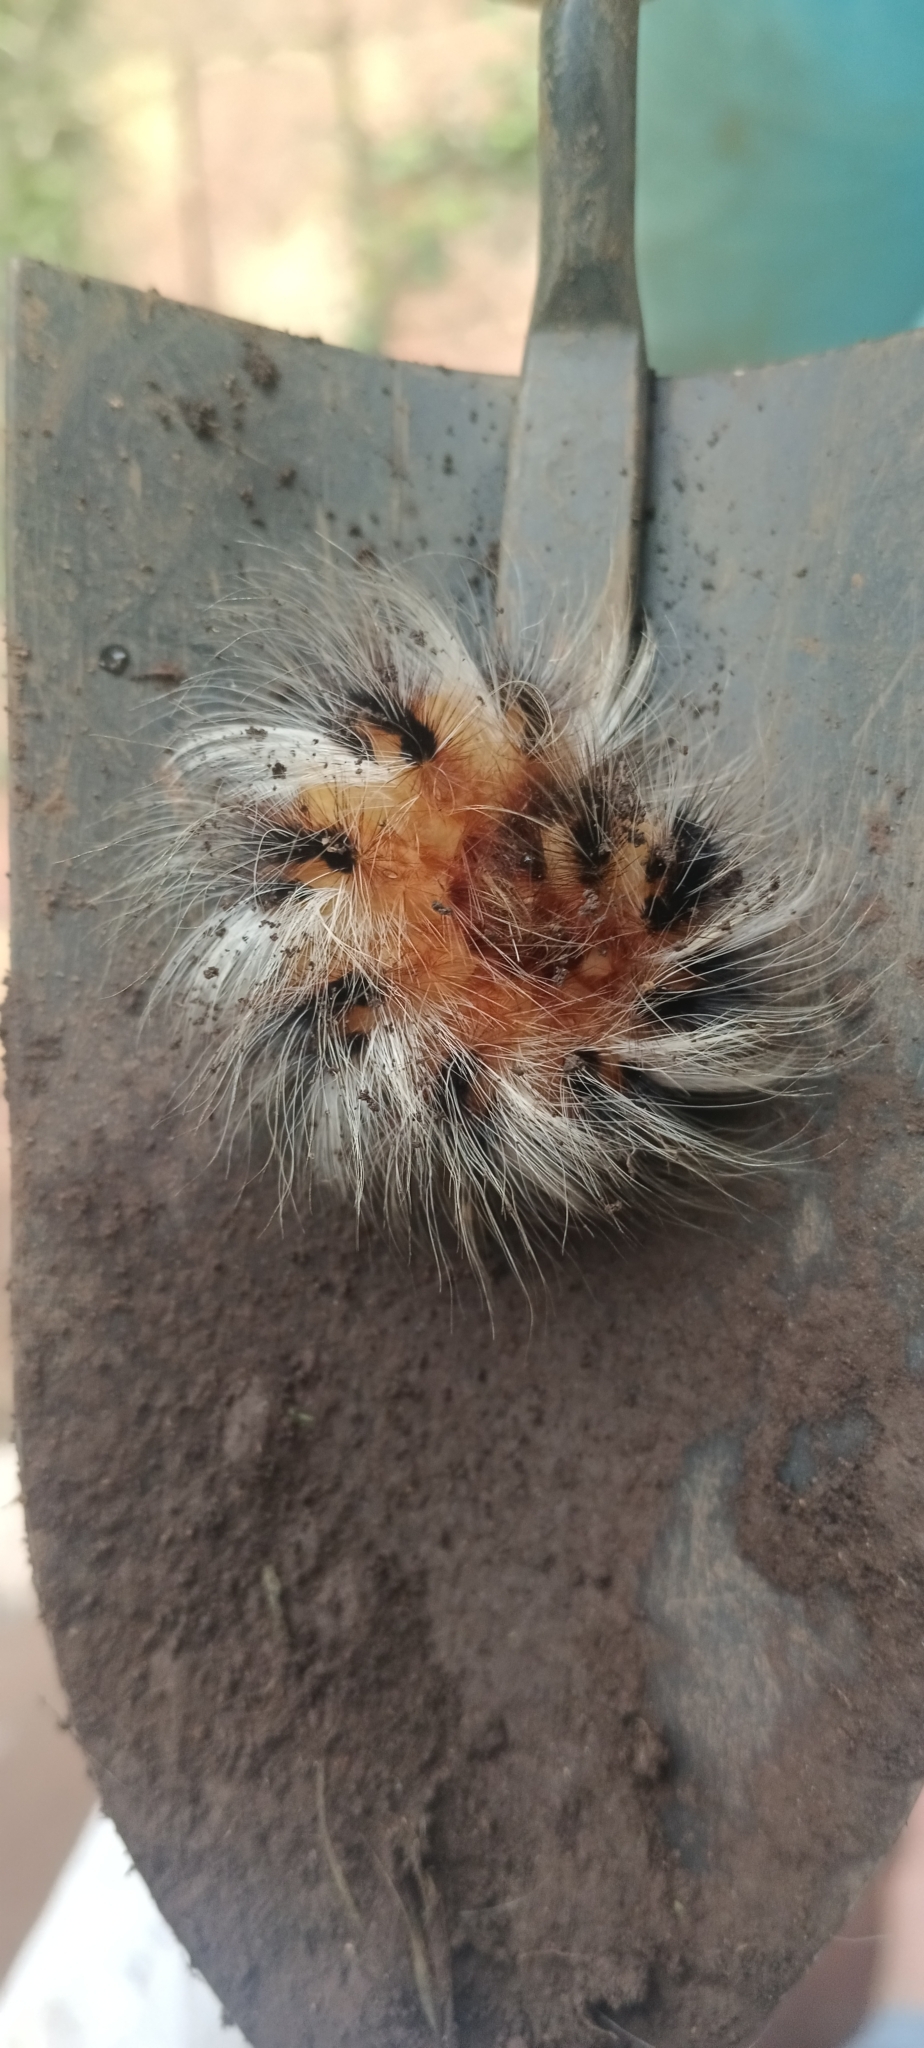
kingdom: Animalia
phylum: Arthropoda
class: Insecta
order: Lepidoptera
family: Eupterotidae
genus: Striphnopteryx
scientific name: Striphnopteryx edulis
